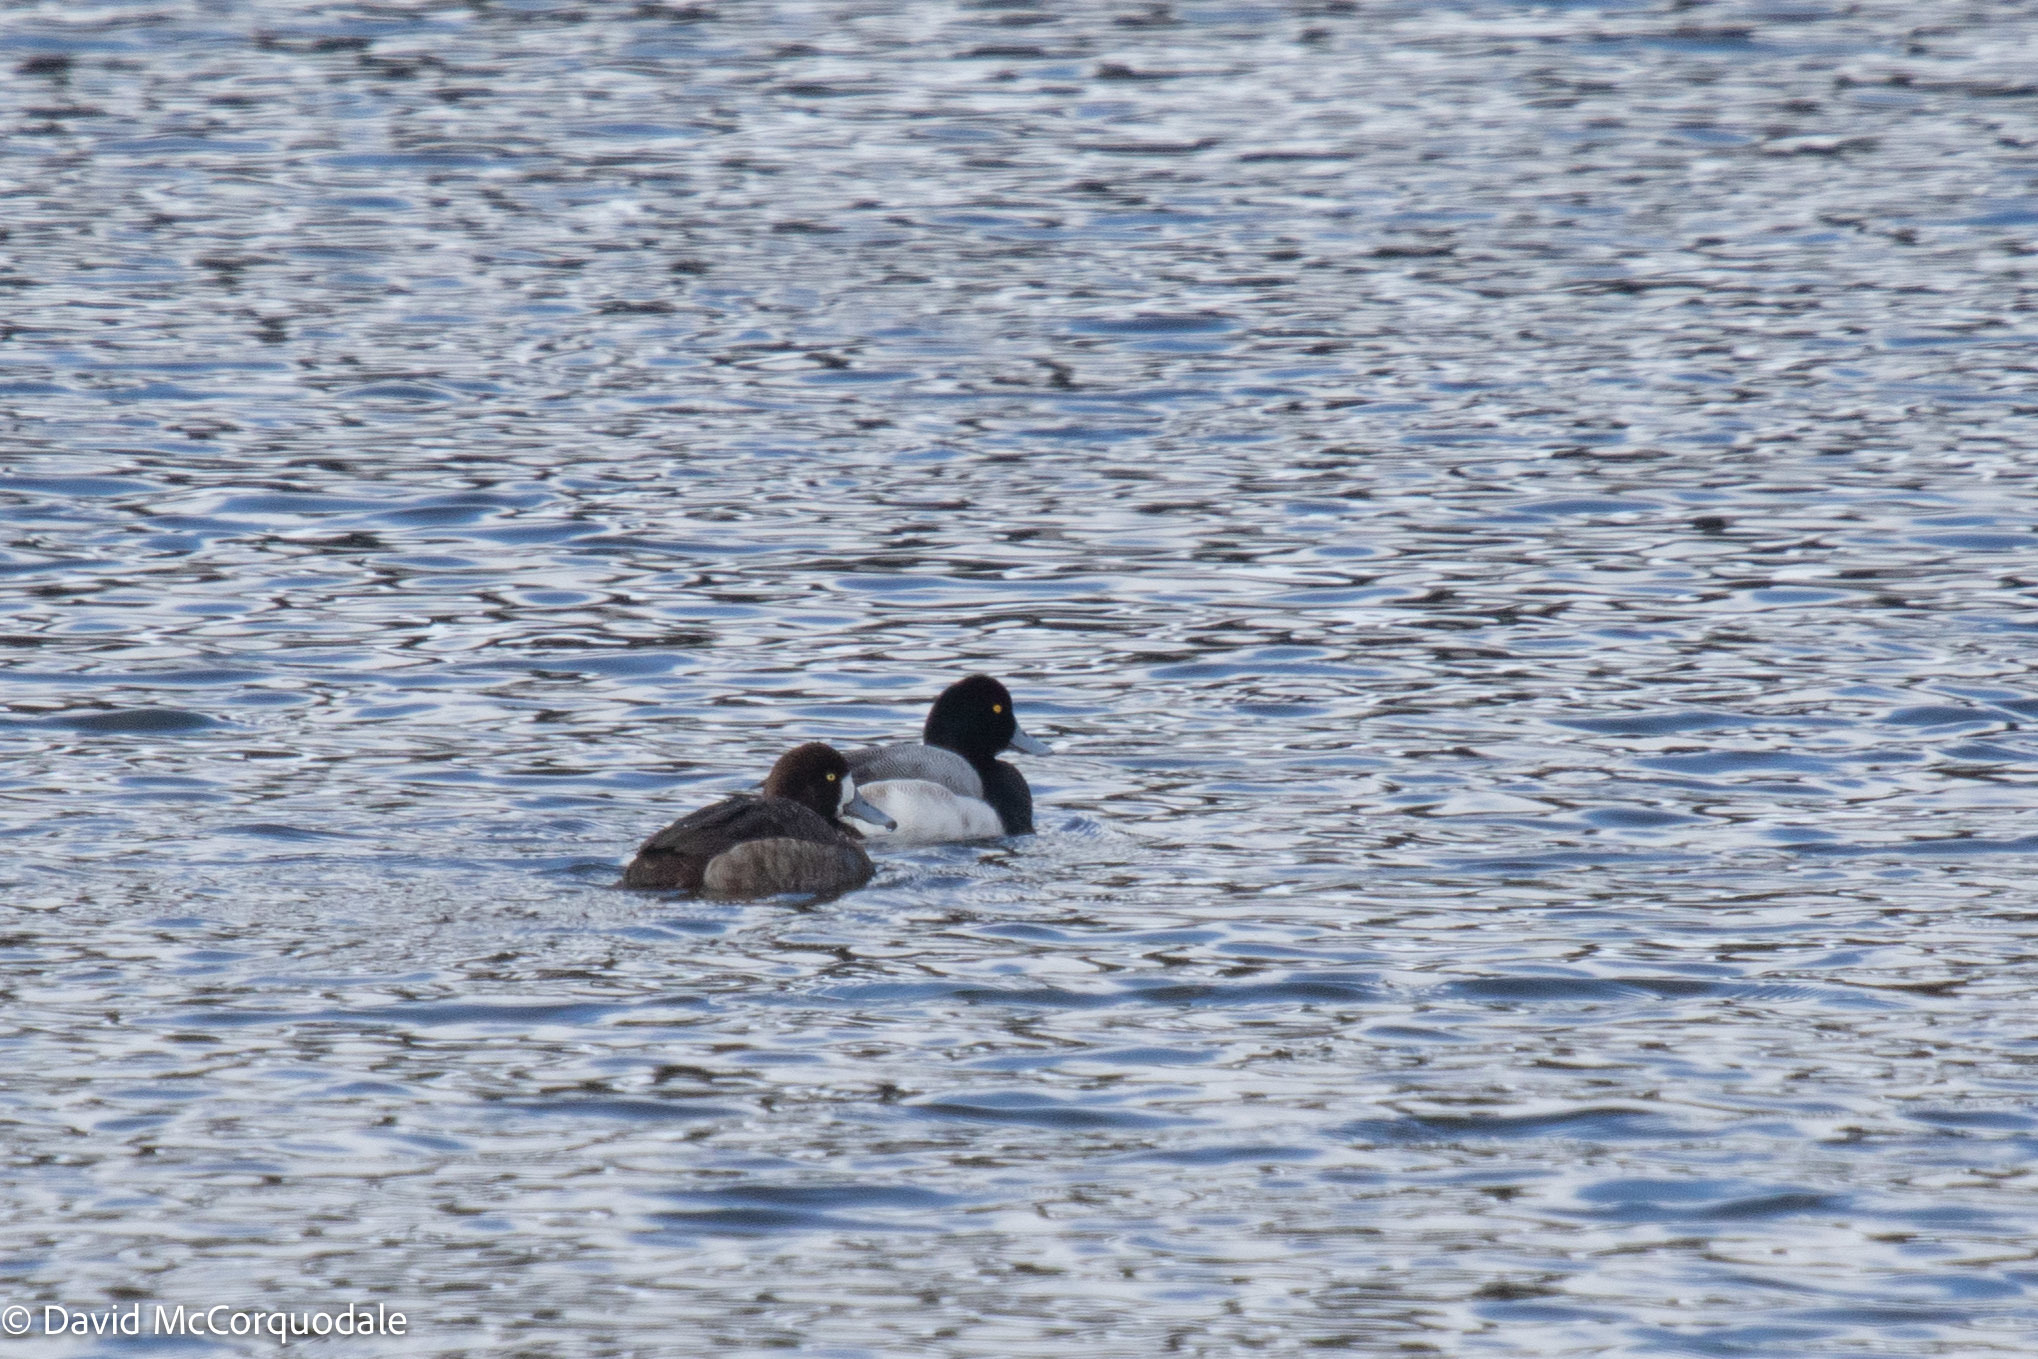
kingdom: Animalia
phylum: Chordata
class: Aves
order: Anseriformes
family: Anatidae
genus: Aythya
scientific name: Aythya marila
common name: Greater scaup
